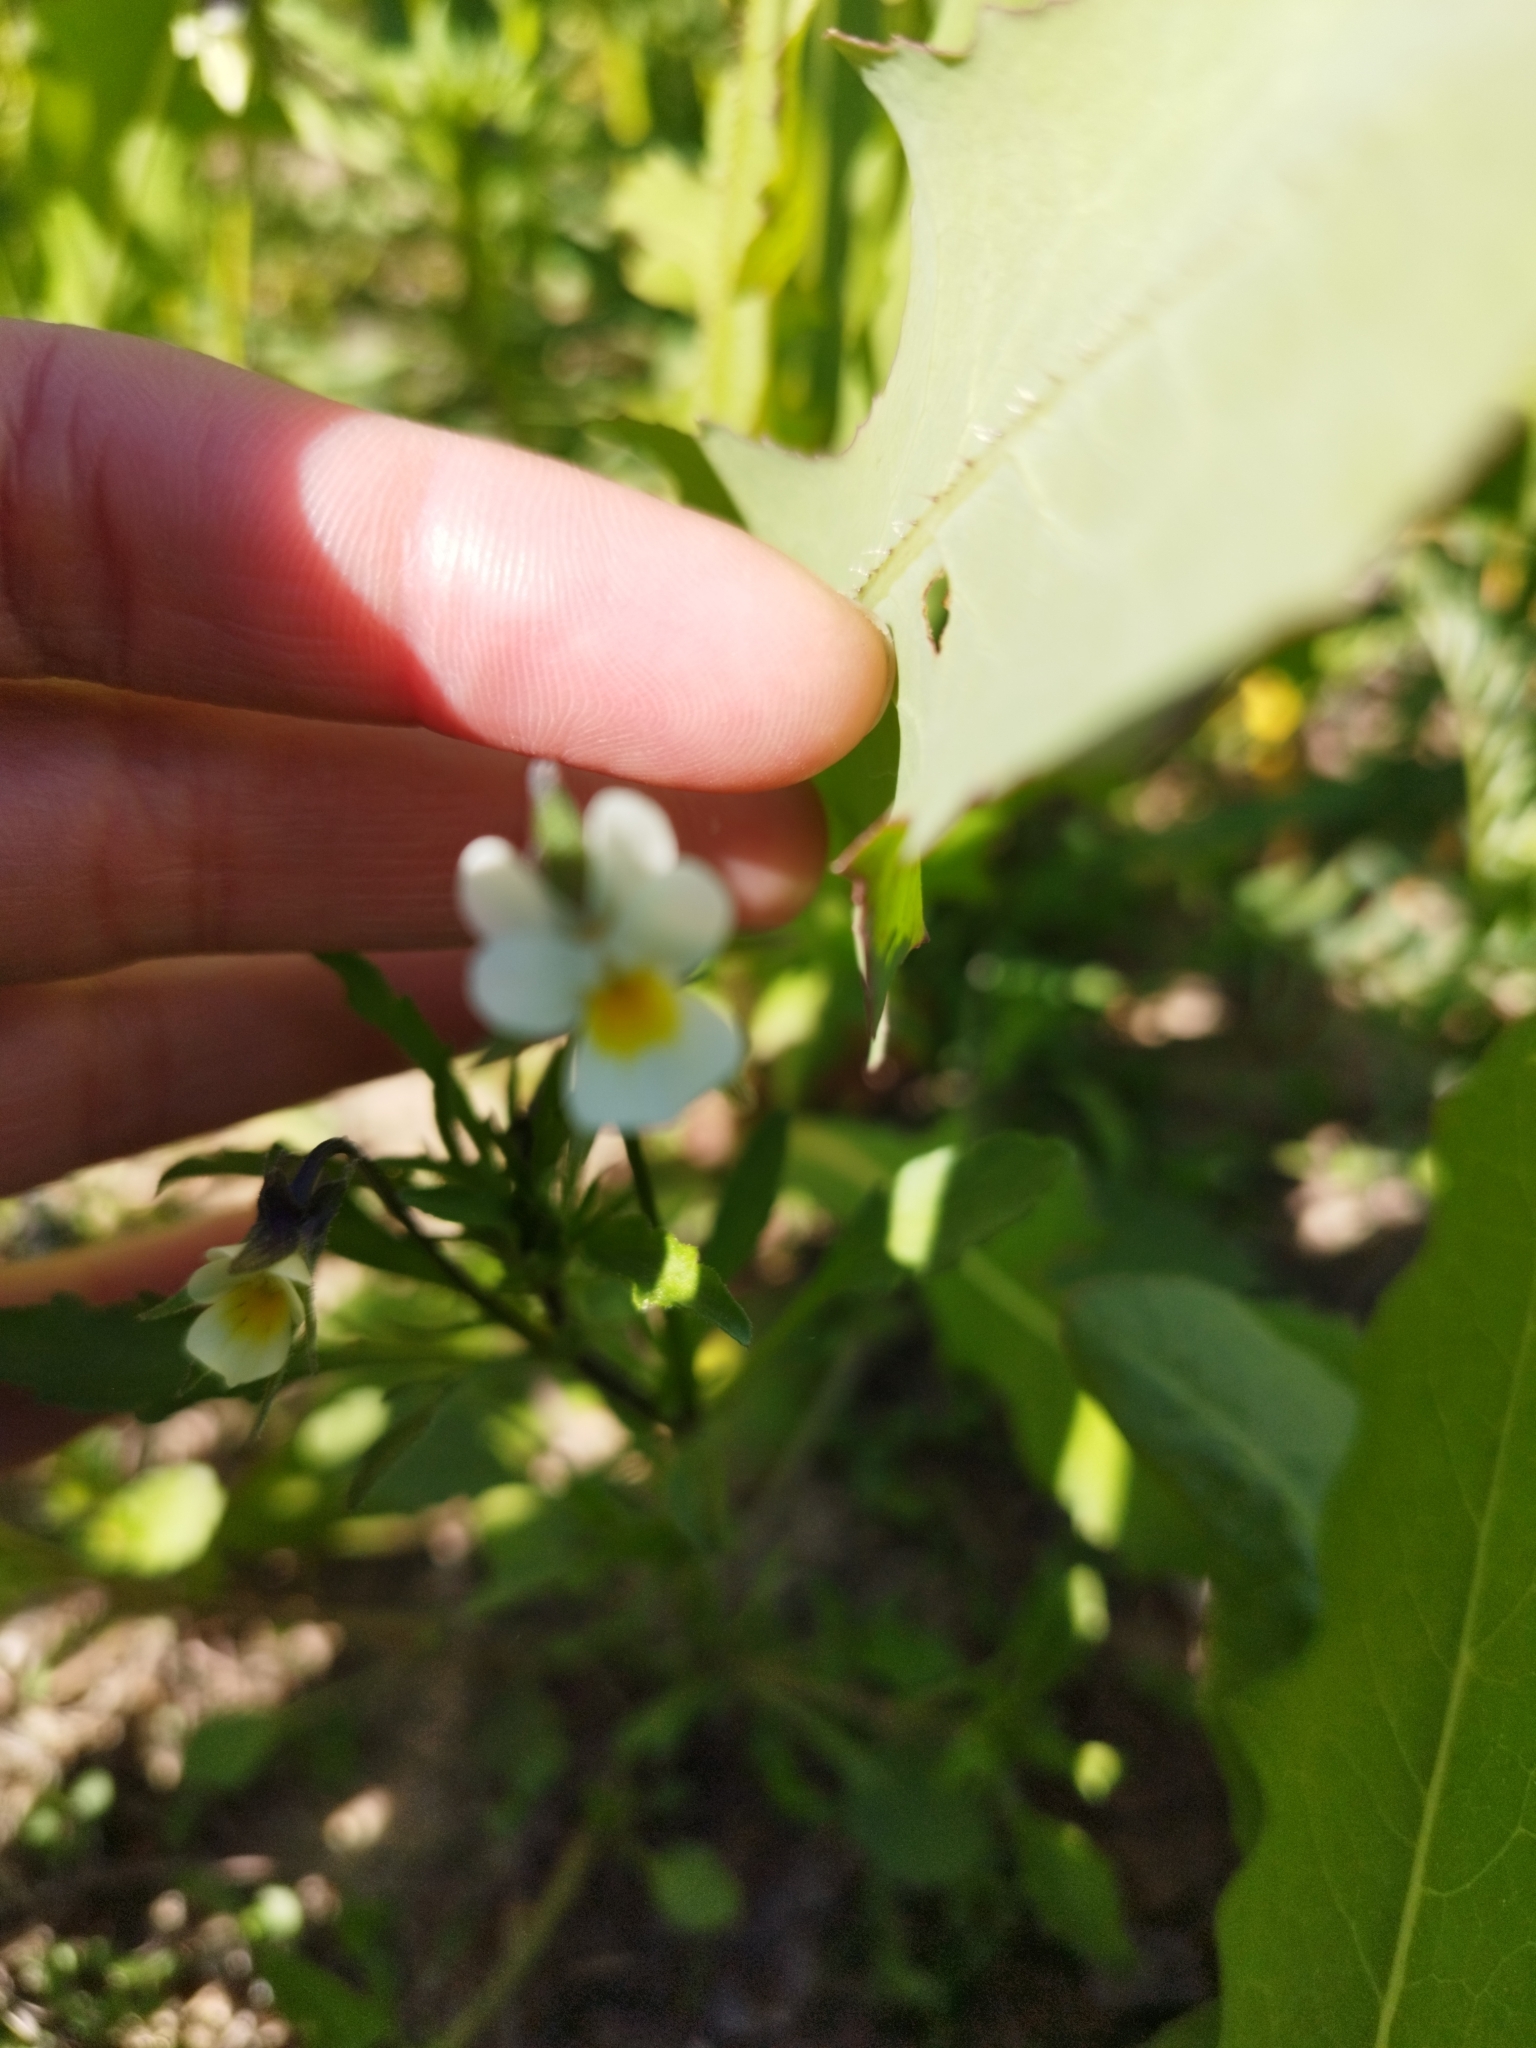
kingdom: Plantae
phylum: Tracheophyta
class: Magnoliopsida
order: Malpighiales
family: Violaceae
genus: Viola
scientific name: Viola arvensis
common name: Field pansy
